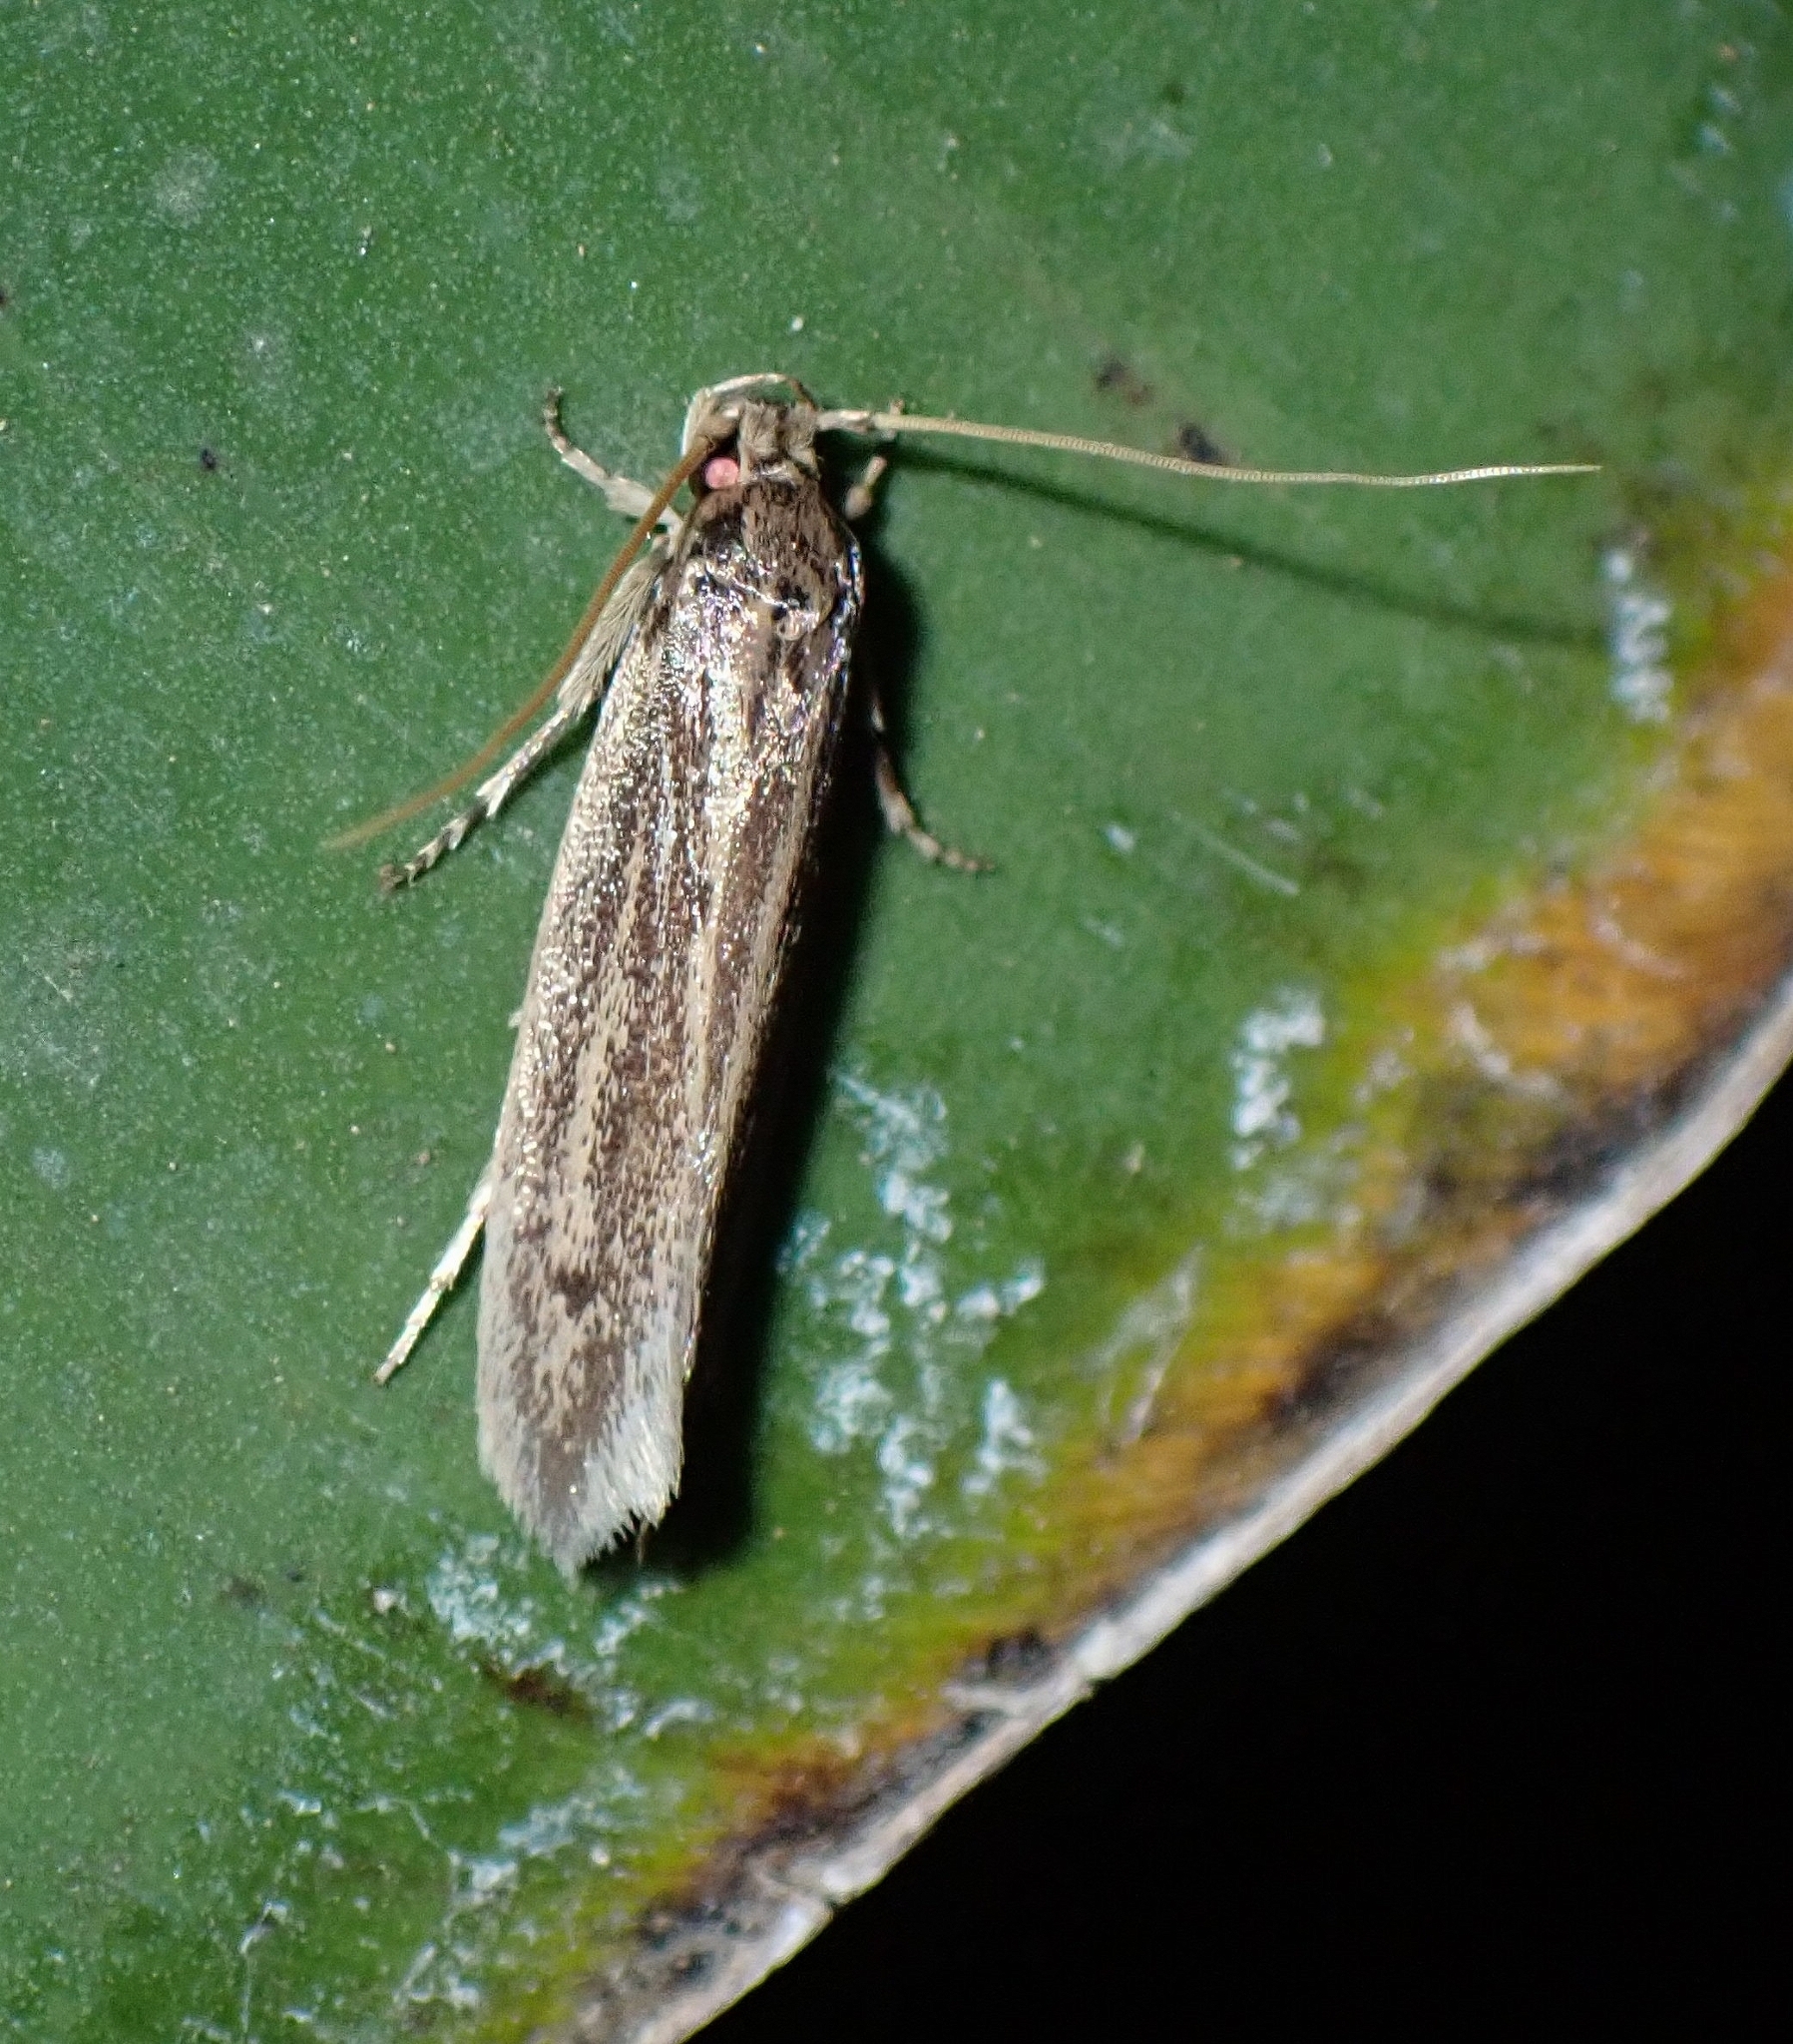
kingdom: Animalia
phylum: Arthropoda
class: Insecta
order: Lepidoptera
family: Tineidae
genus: Opogona
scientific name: Opogona sacchari
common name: Banana bud moth
